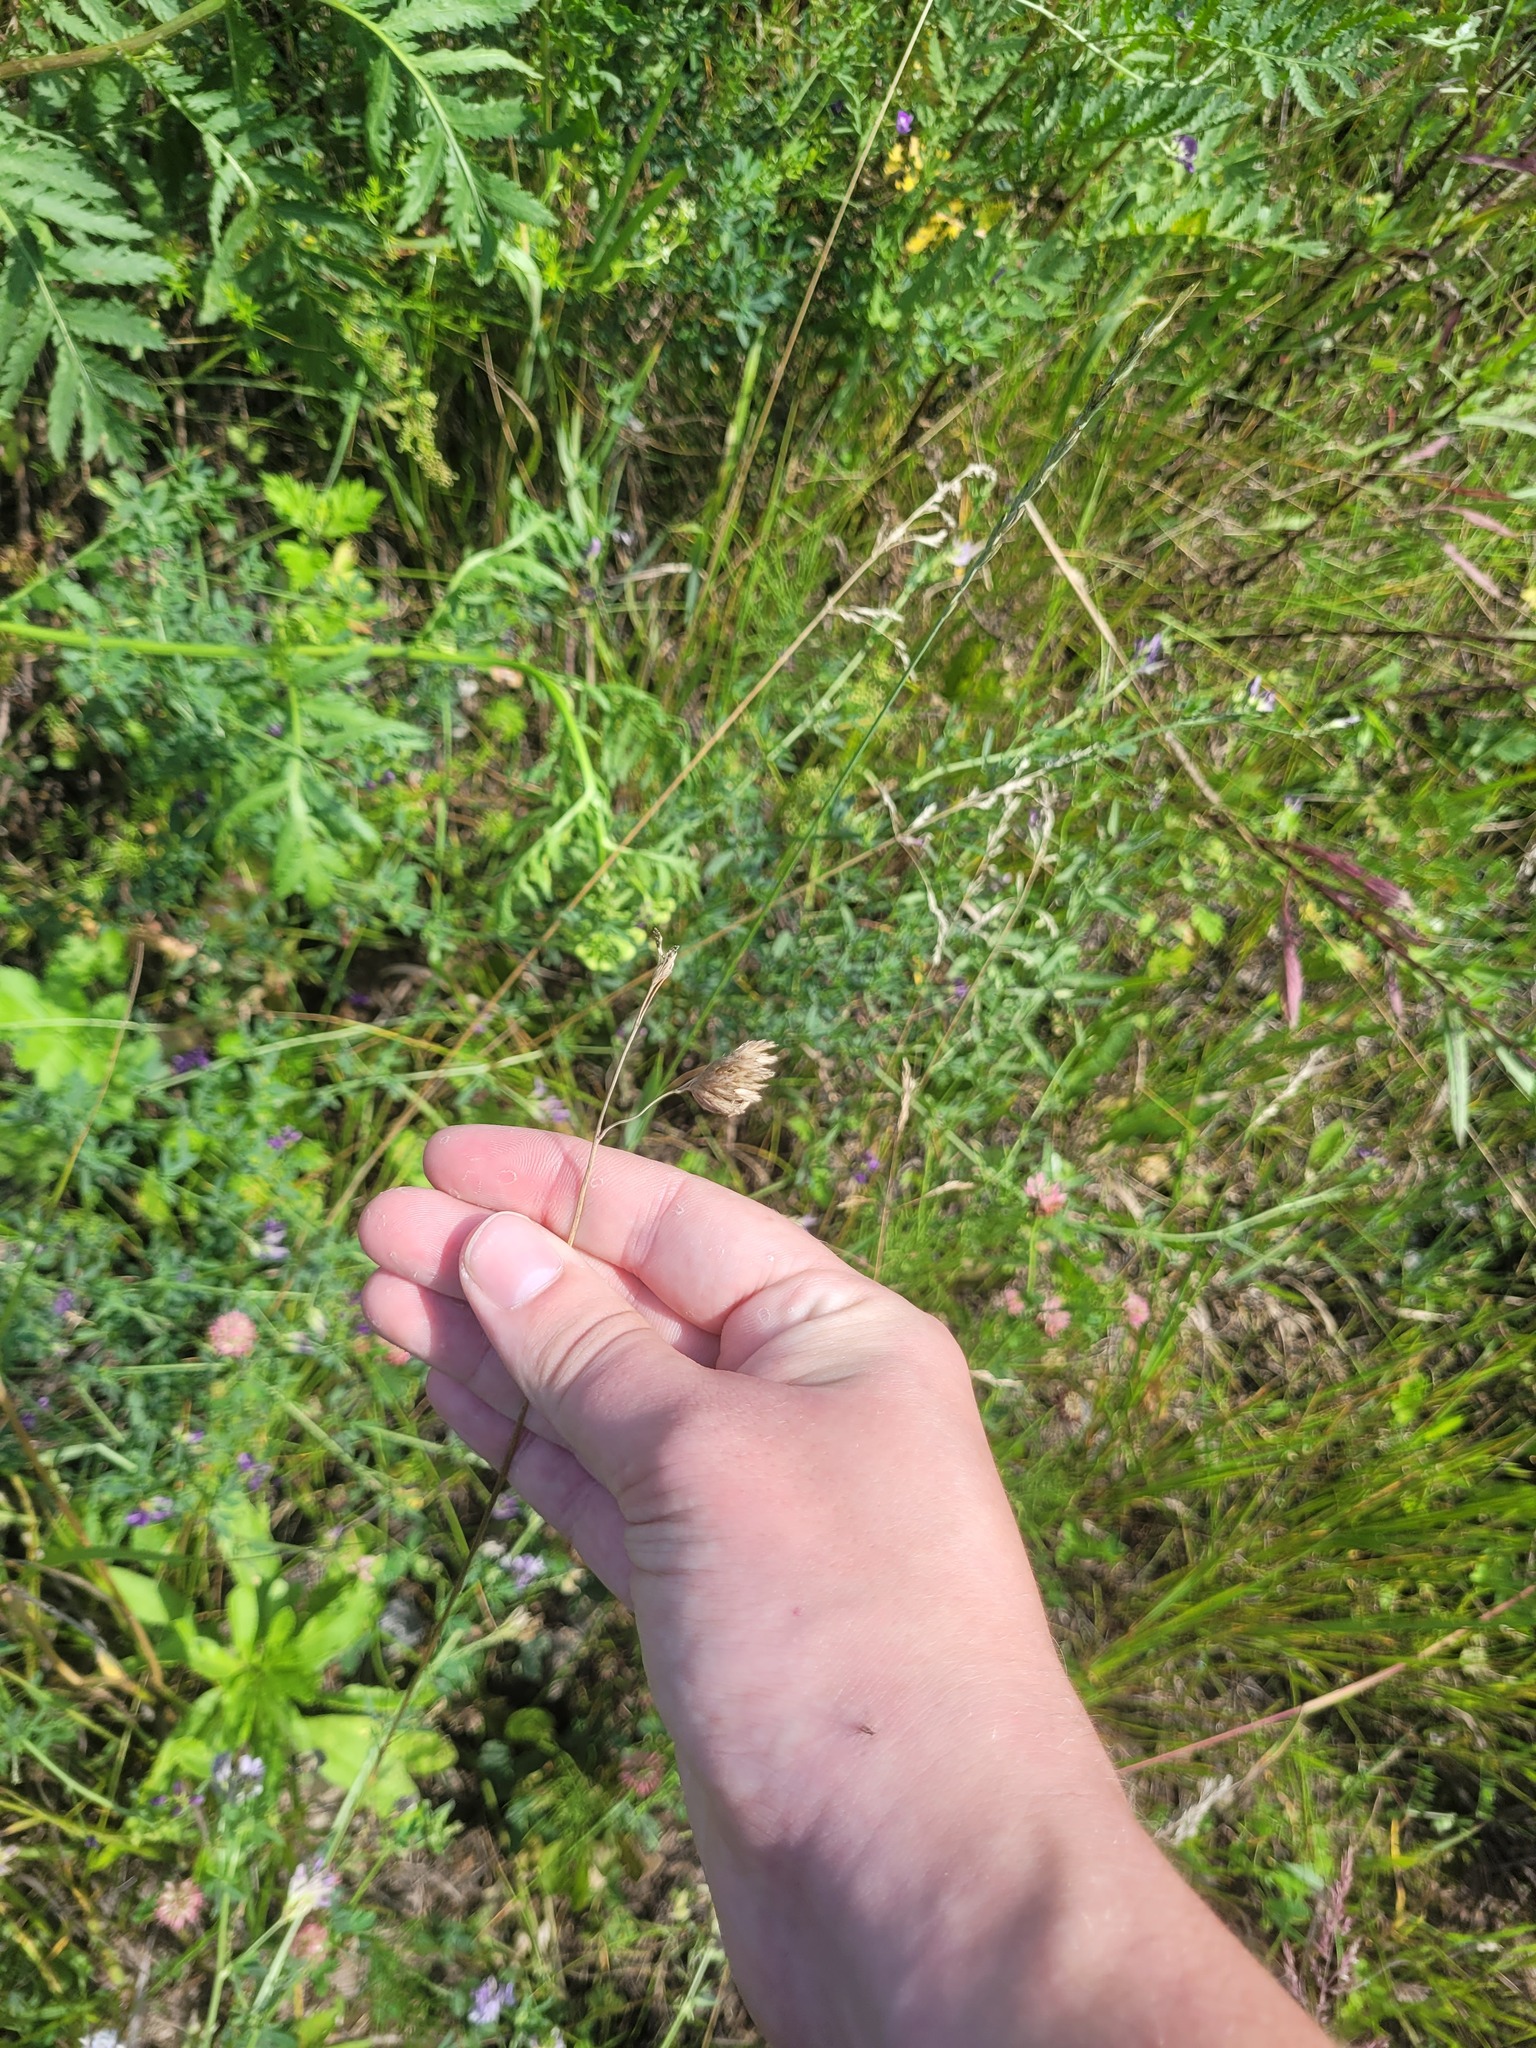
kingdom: Plantae
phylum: Tracheophyta
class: Liliopsida
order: Poales
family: Poaceae
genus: Dactylis
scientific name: Dactylis glomerata
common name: Orchardgrass
